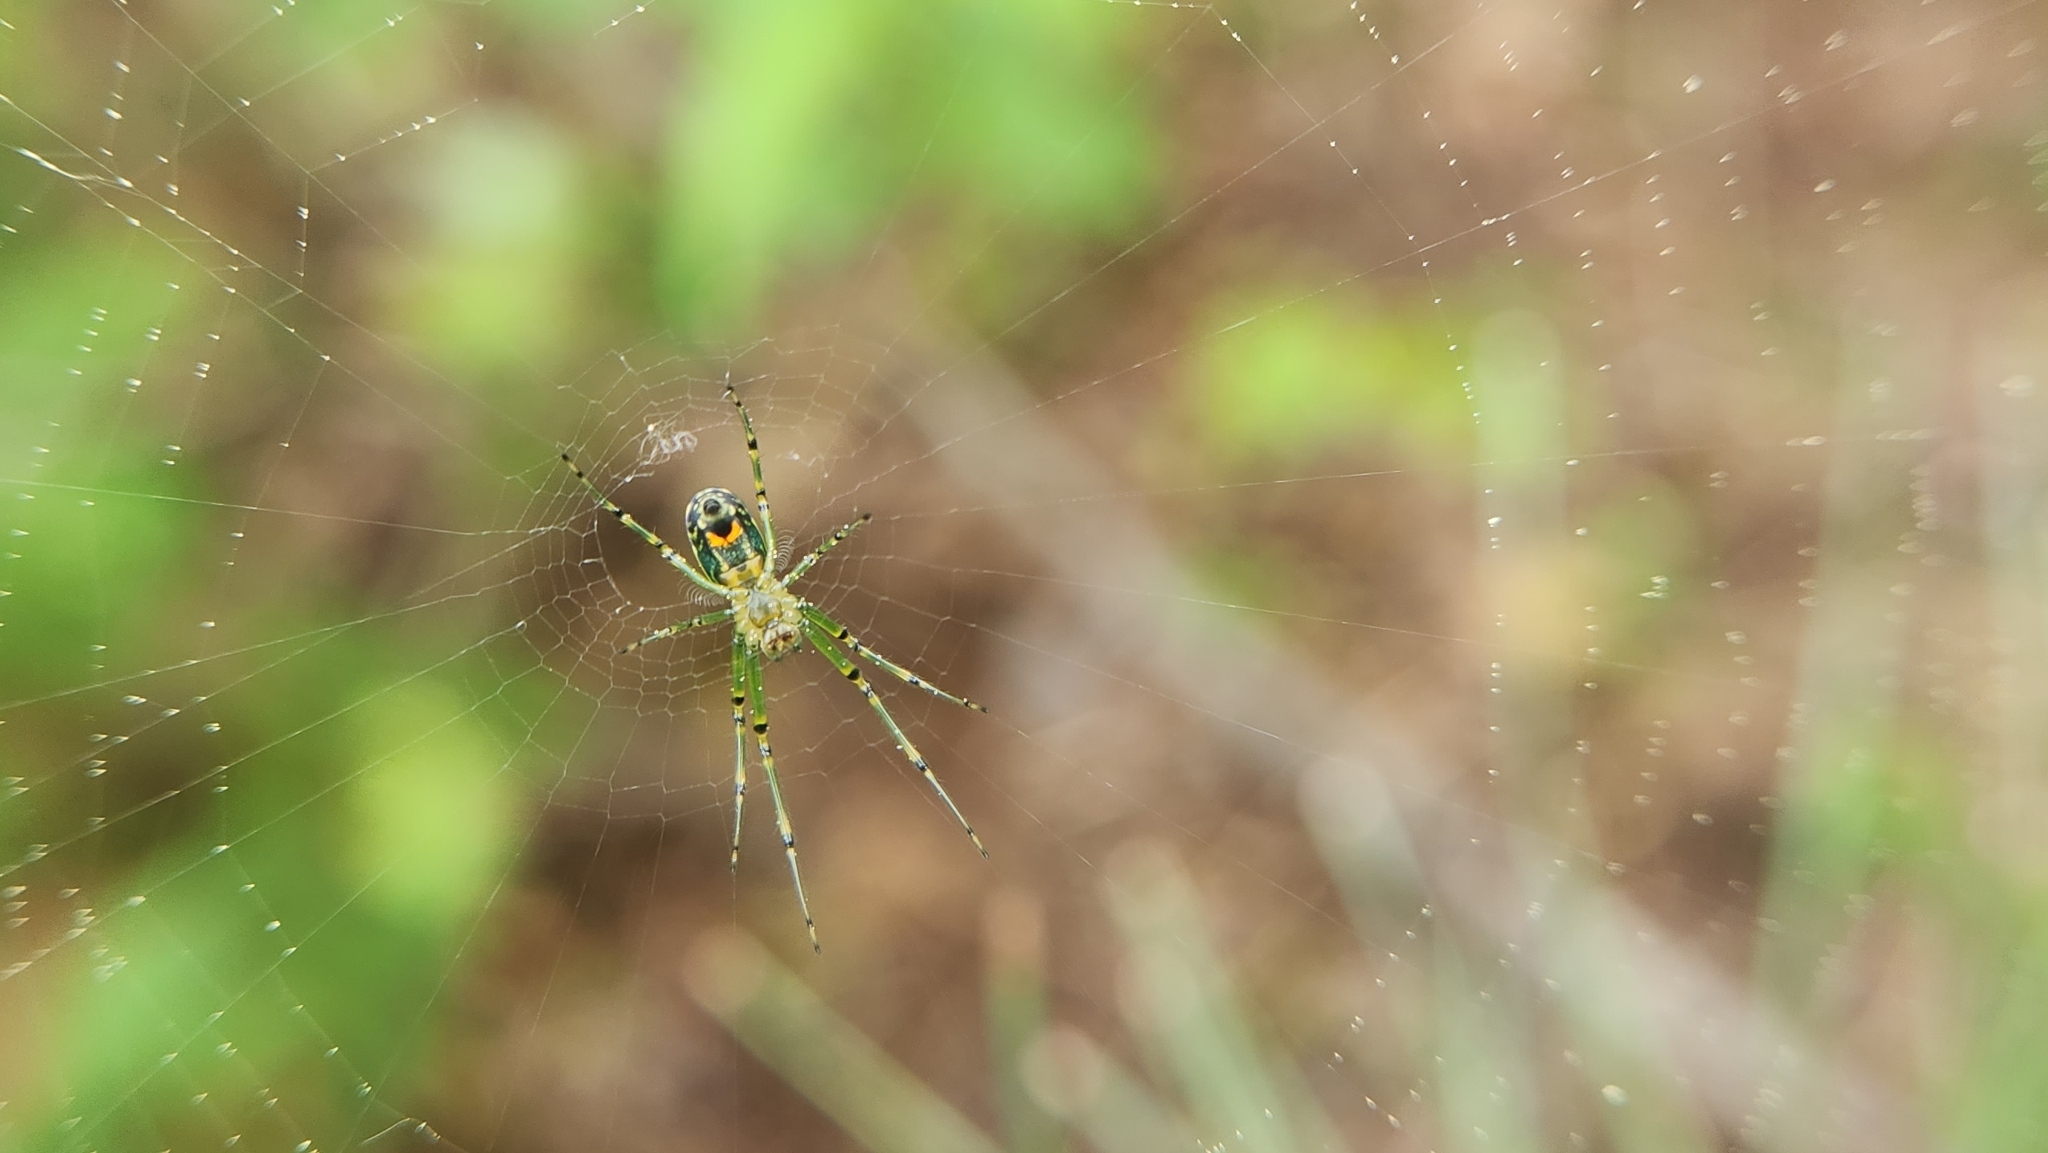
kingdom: Animalia
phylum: Arthropoda
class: Arachnida
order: Araneae
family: Tetragnathidae
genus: Leucauge
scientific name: Leucauge venusta
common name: Longjawed orb weavers
